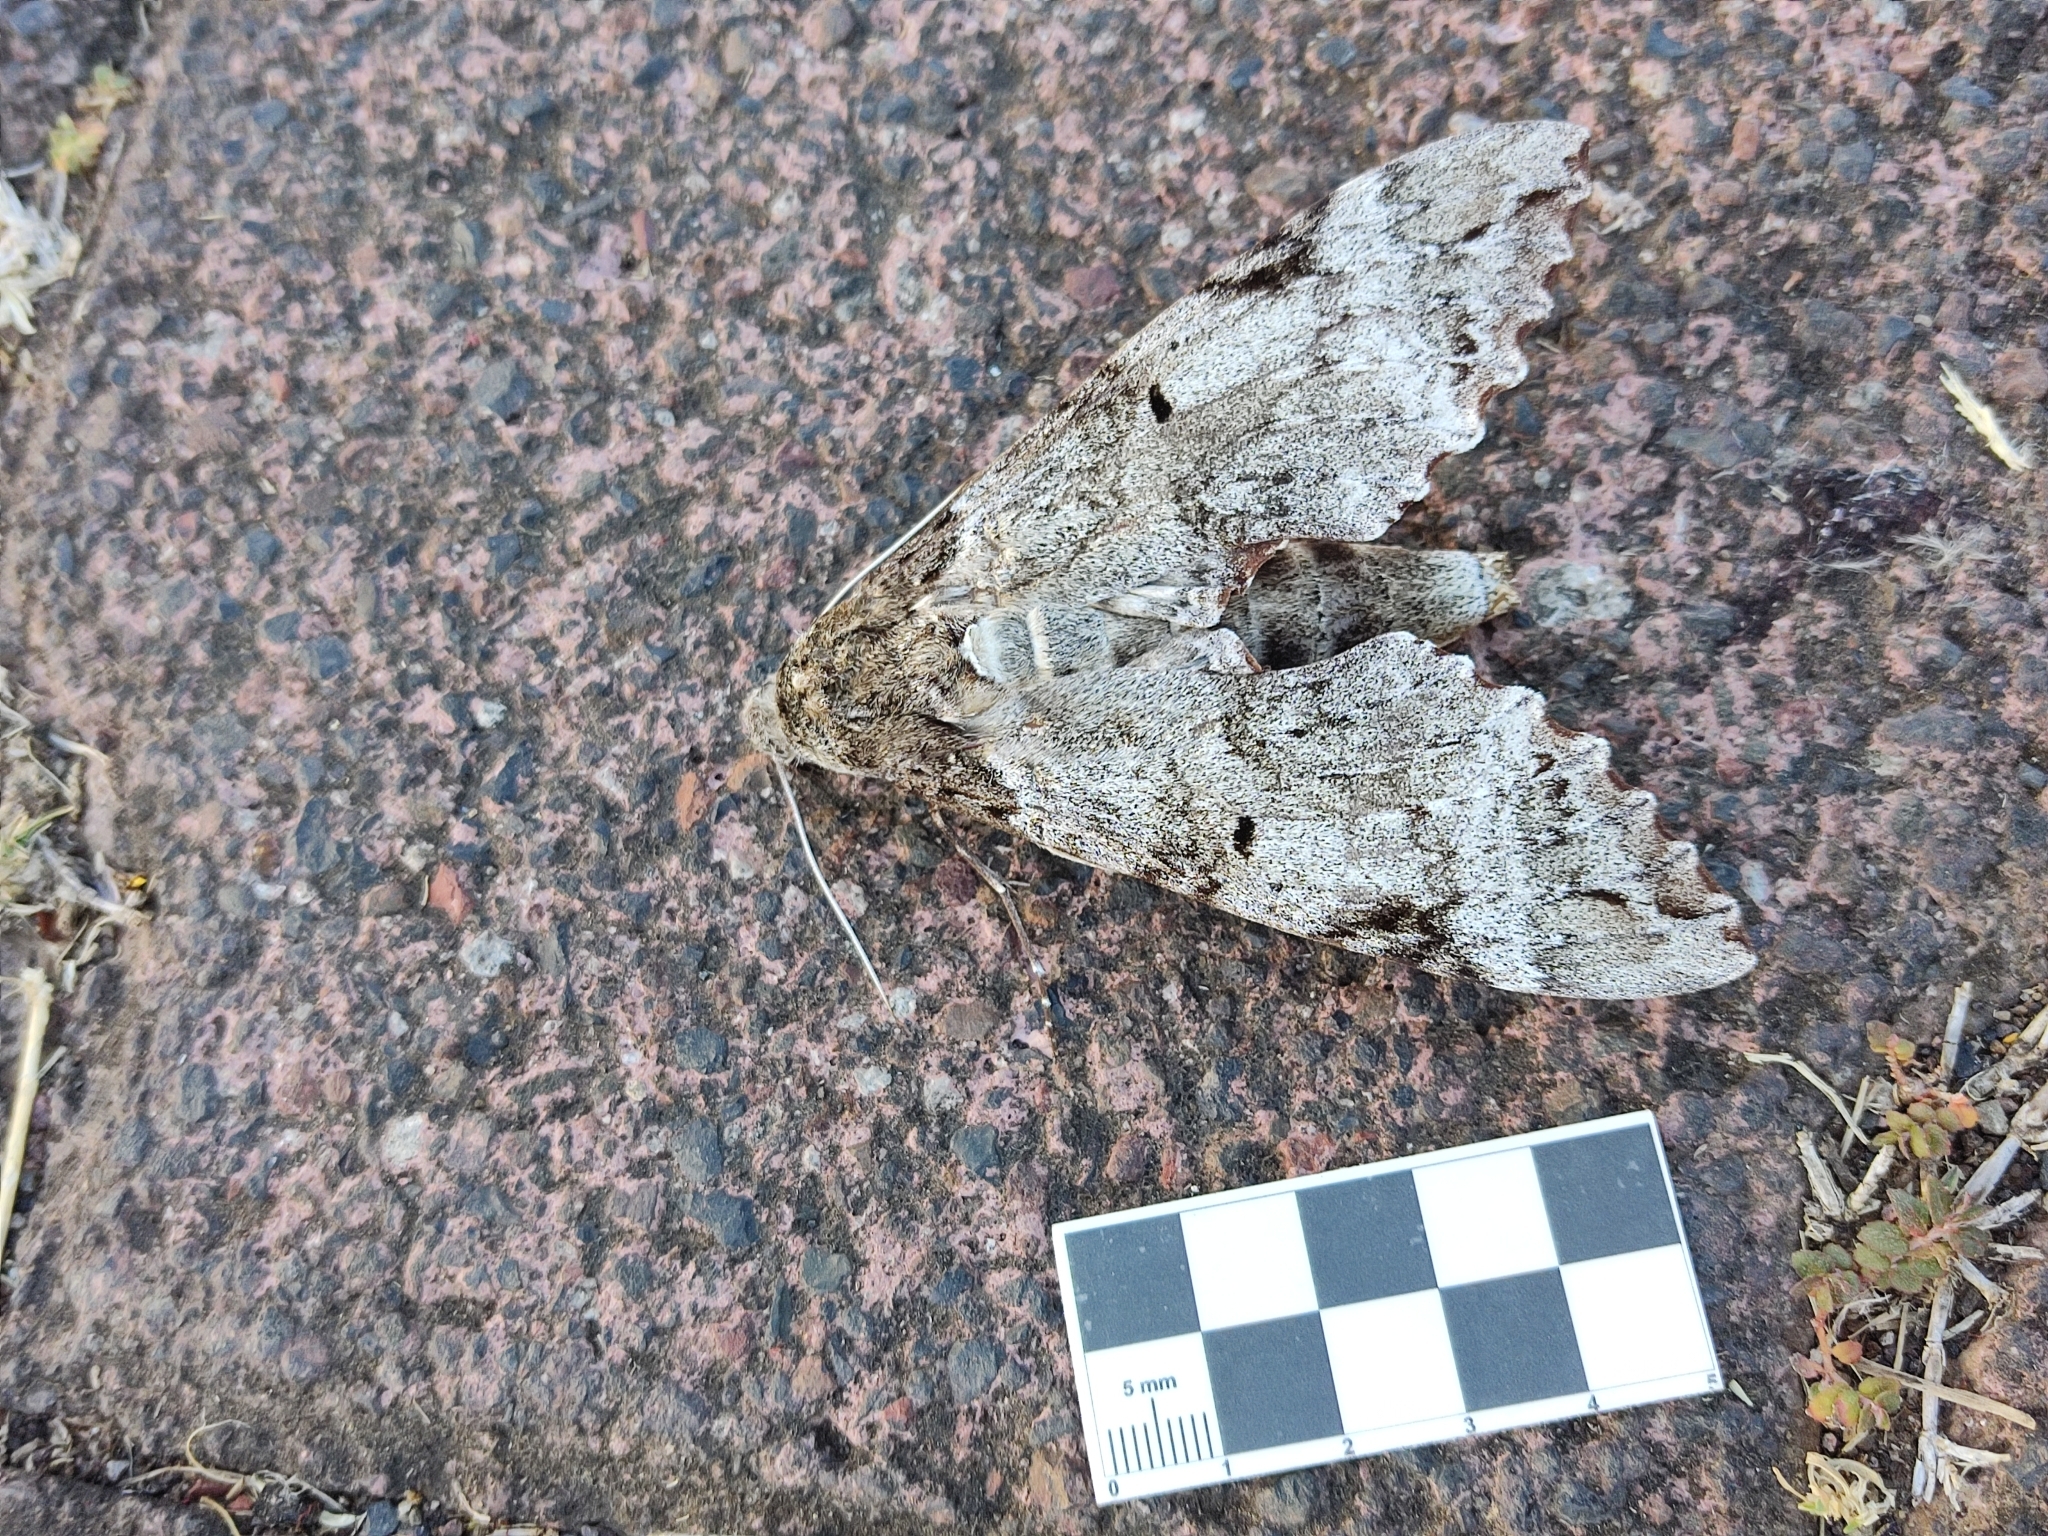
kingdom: Animalia
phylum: Arthropoda
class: Insecta
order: Lepidoptera
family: Sphingidae
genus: Pseudosphinx
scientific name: Pseudosphinx tetrio
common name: Tetrio sphinx
